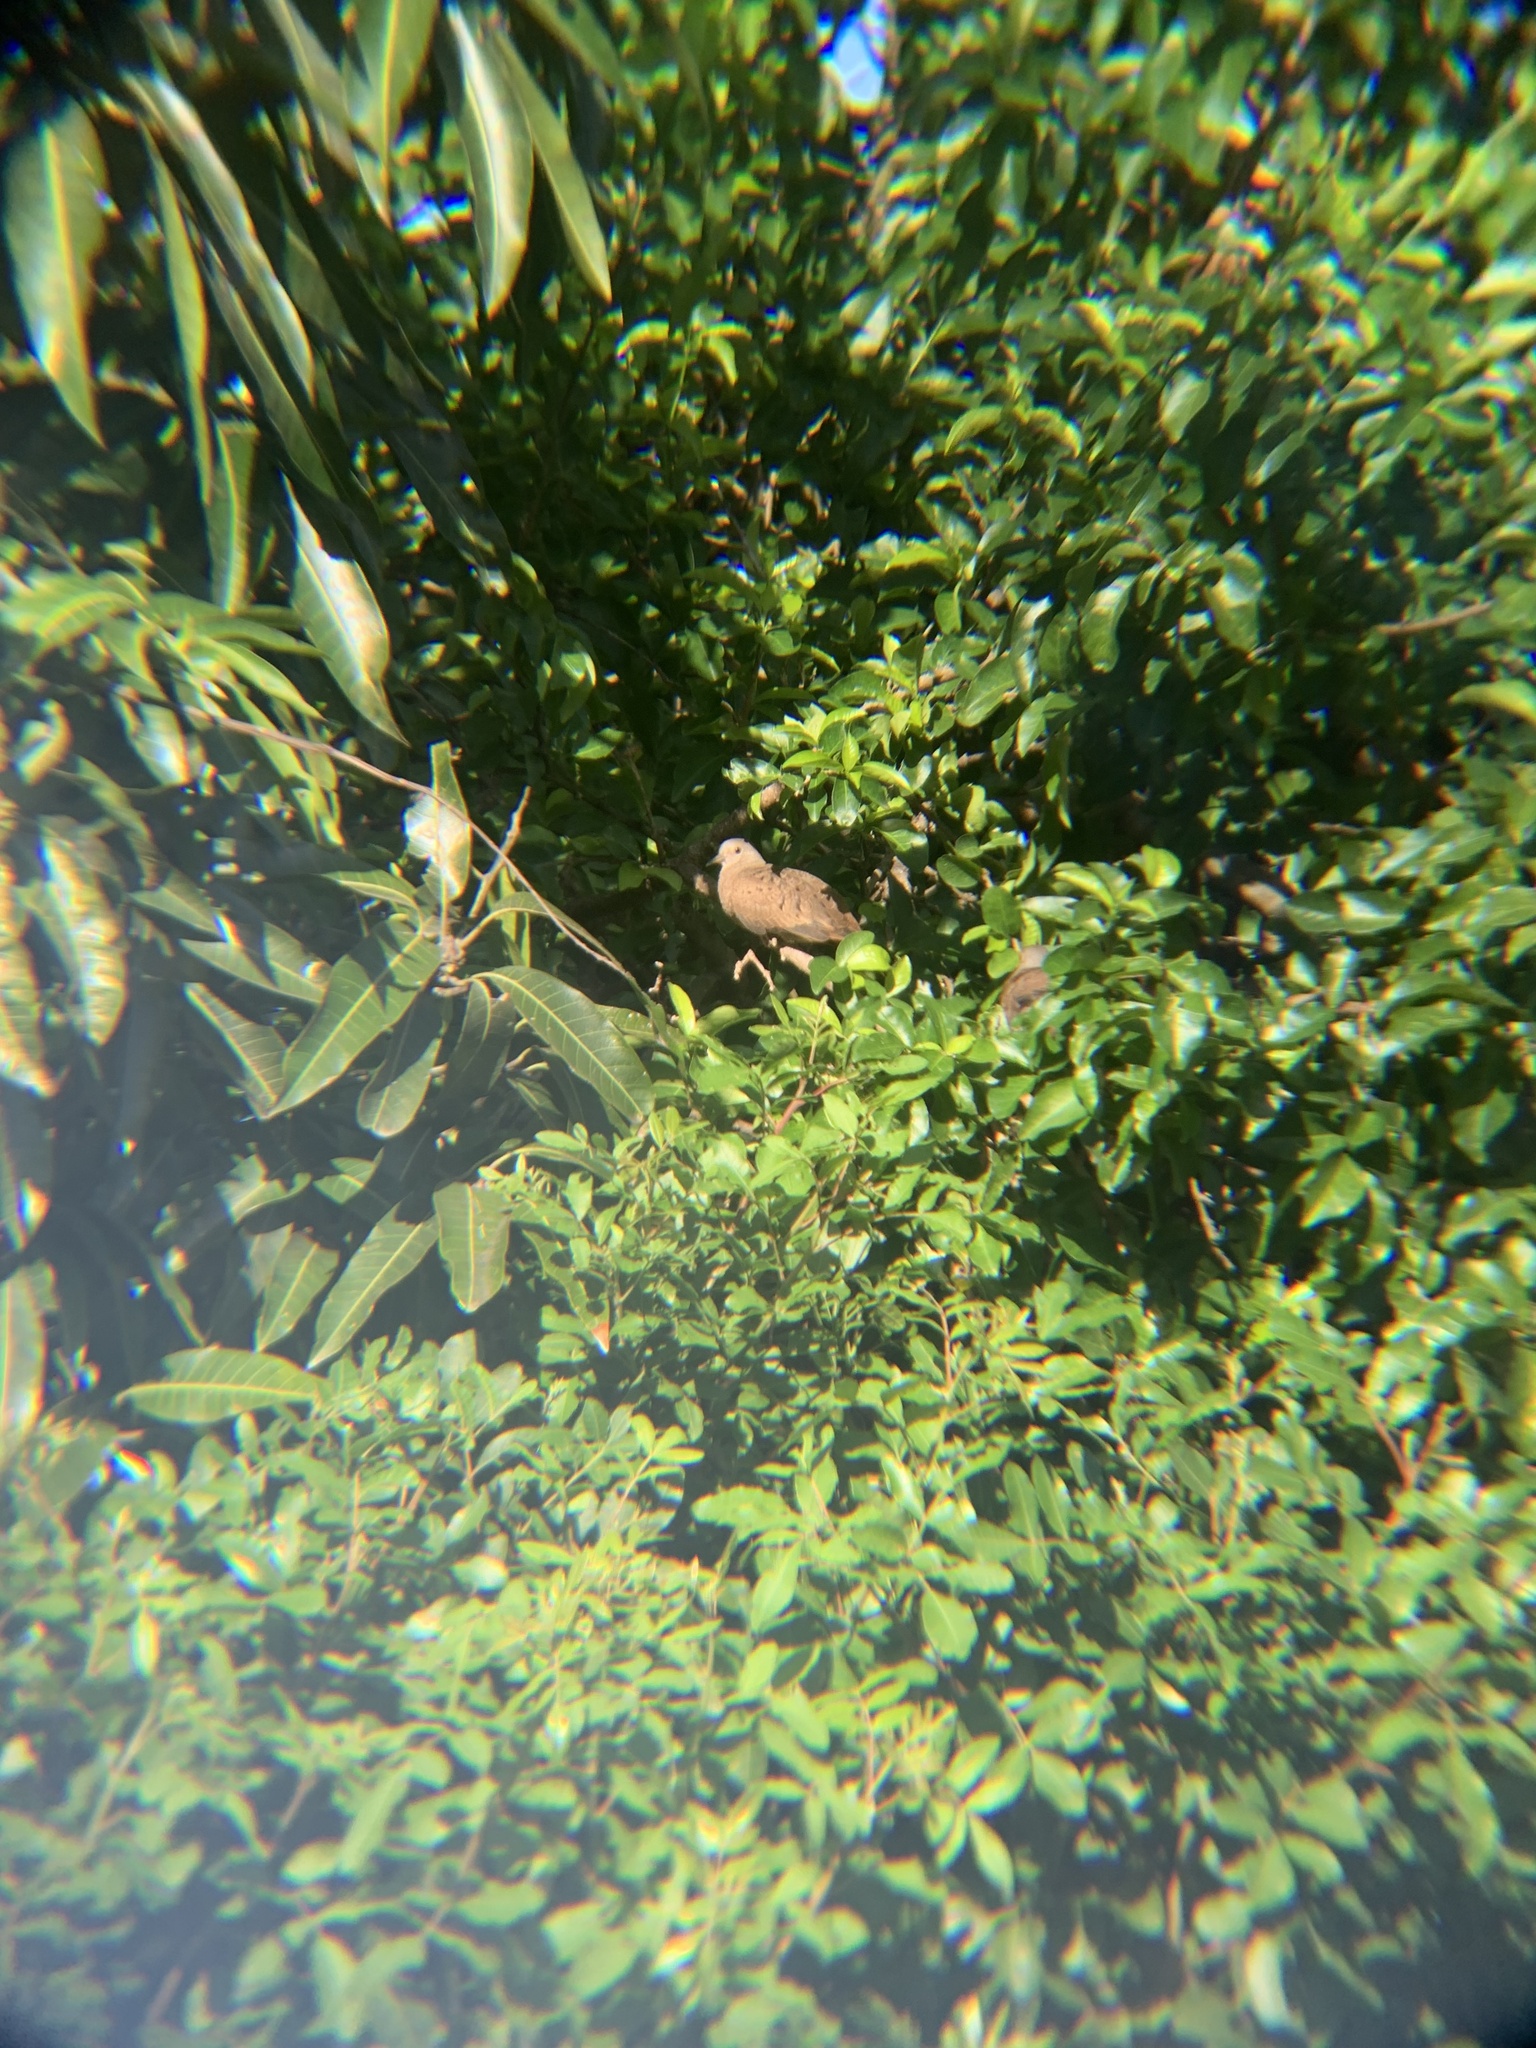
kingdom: Animalia
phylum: Chordata
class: Aves
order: Columbiformes
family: Columbidae
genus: Columbina
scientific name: Columbina talpacoti
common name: Ruddy ground dove
